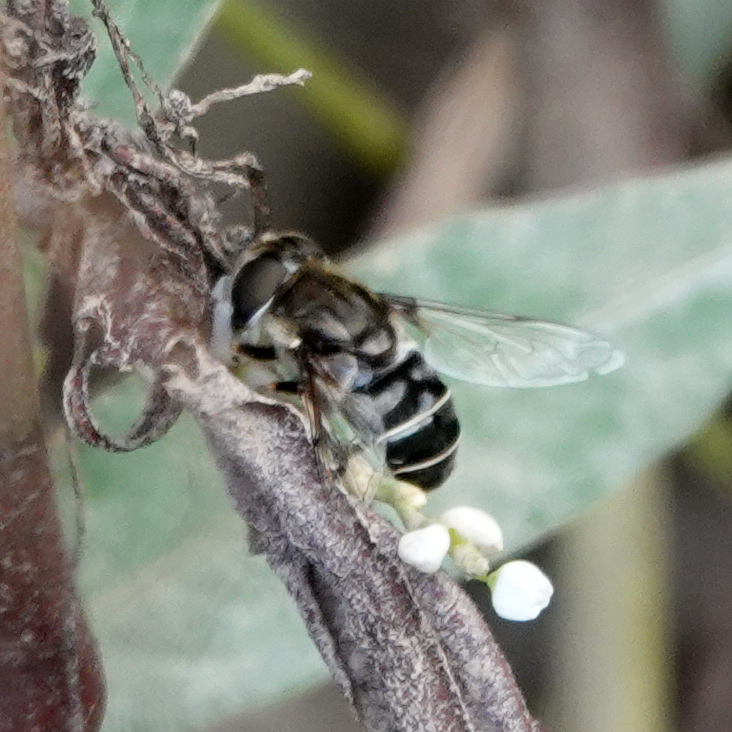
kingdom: Animalia
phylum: Arthropoda
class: Insecta
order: Diptera
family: Syrphidae
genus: Eristalis
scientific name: Eristalis dimidiata
